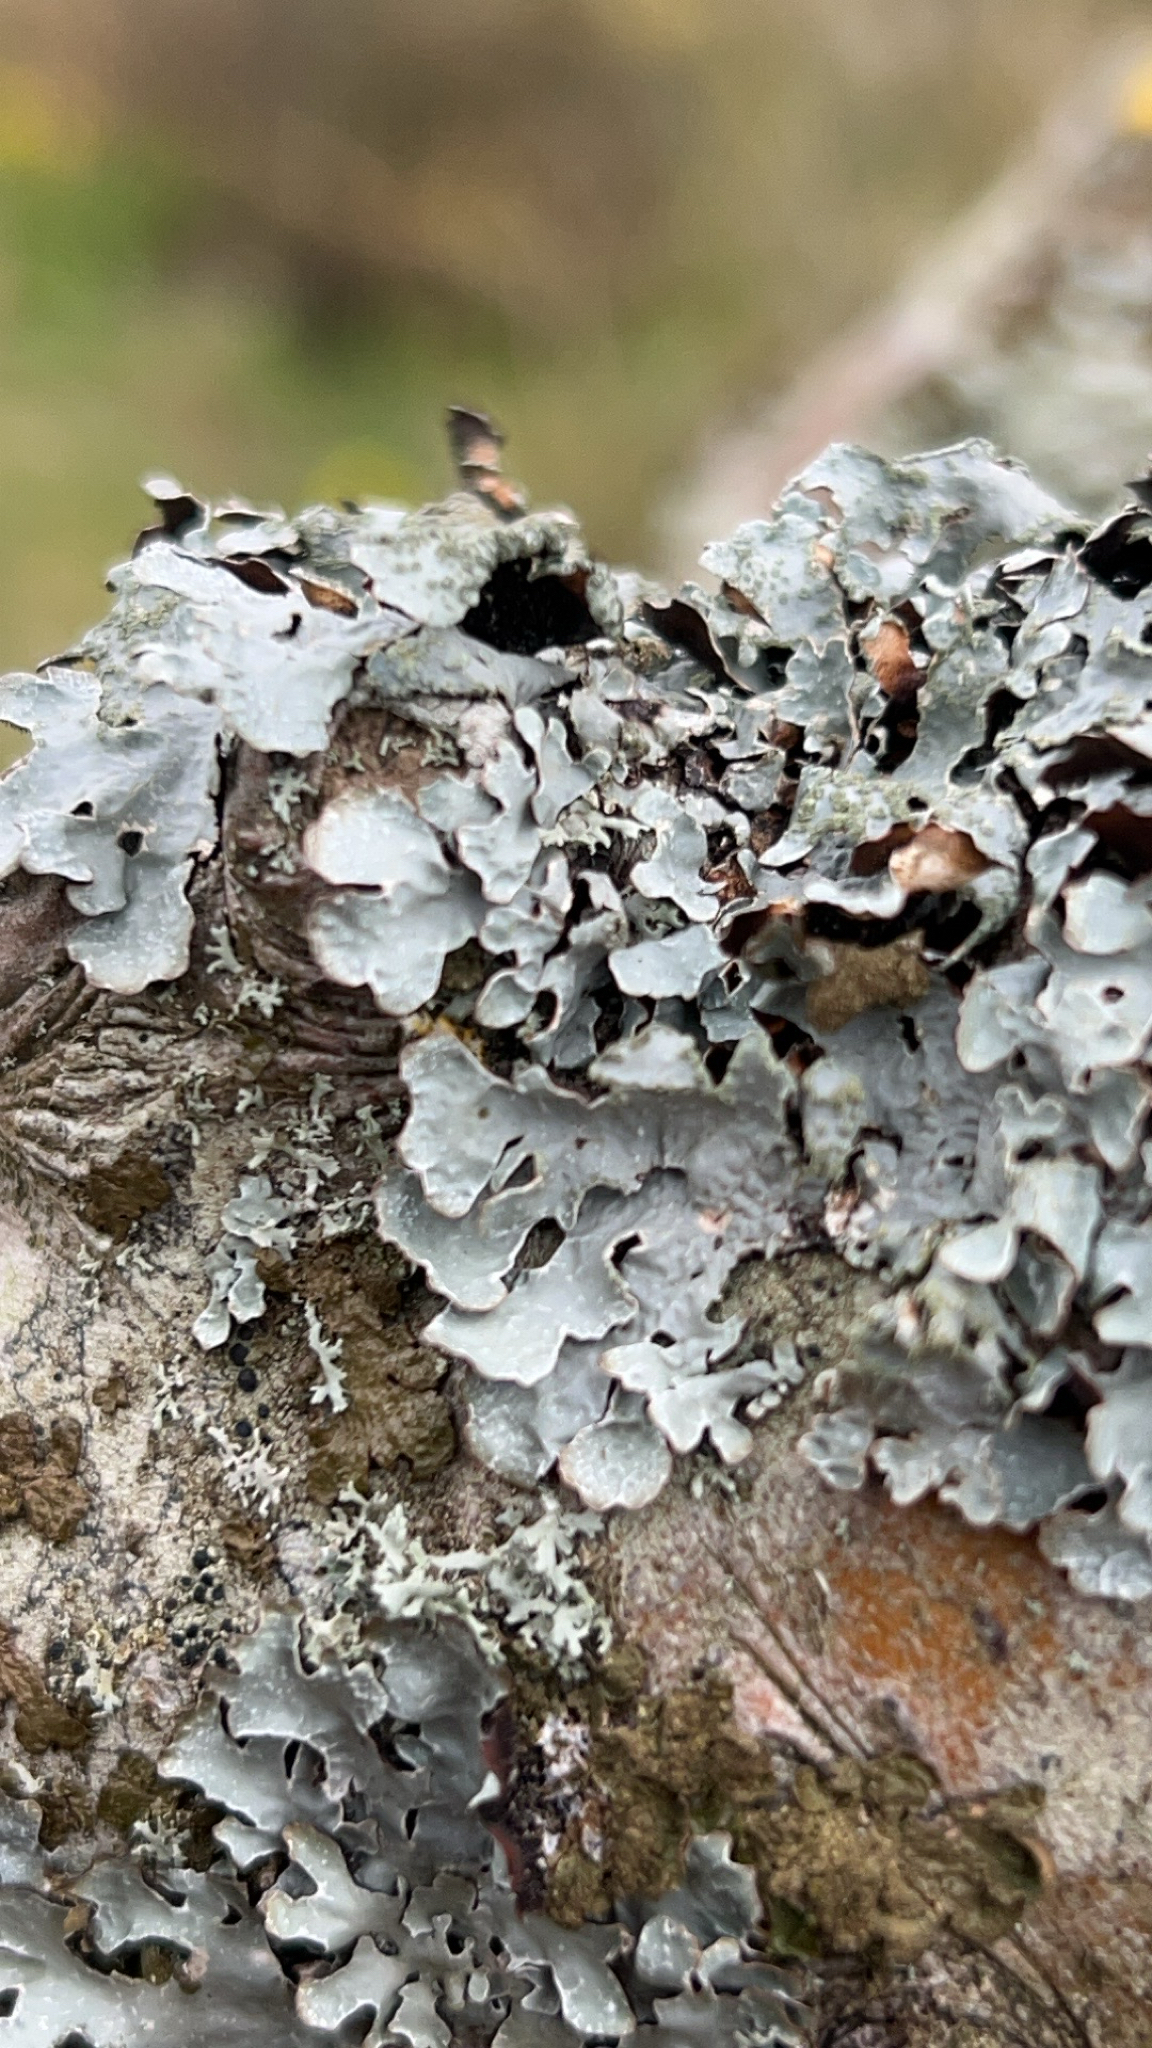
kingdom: Fungi
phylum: Ascomycota
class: Lecanoromycetes
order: Lecanorales
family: Parmeliaceae
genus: Parmelia
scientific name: Parmelia sulcata
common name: Netted shield lichen
